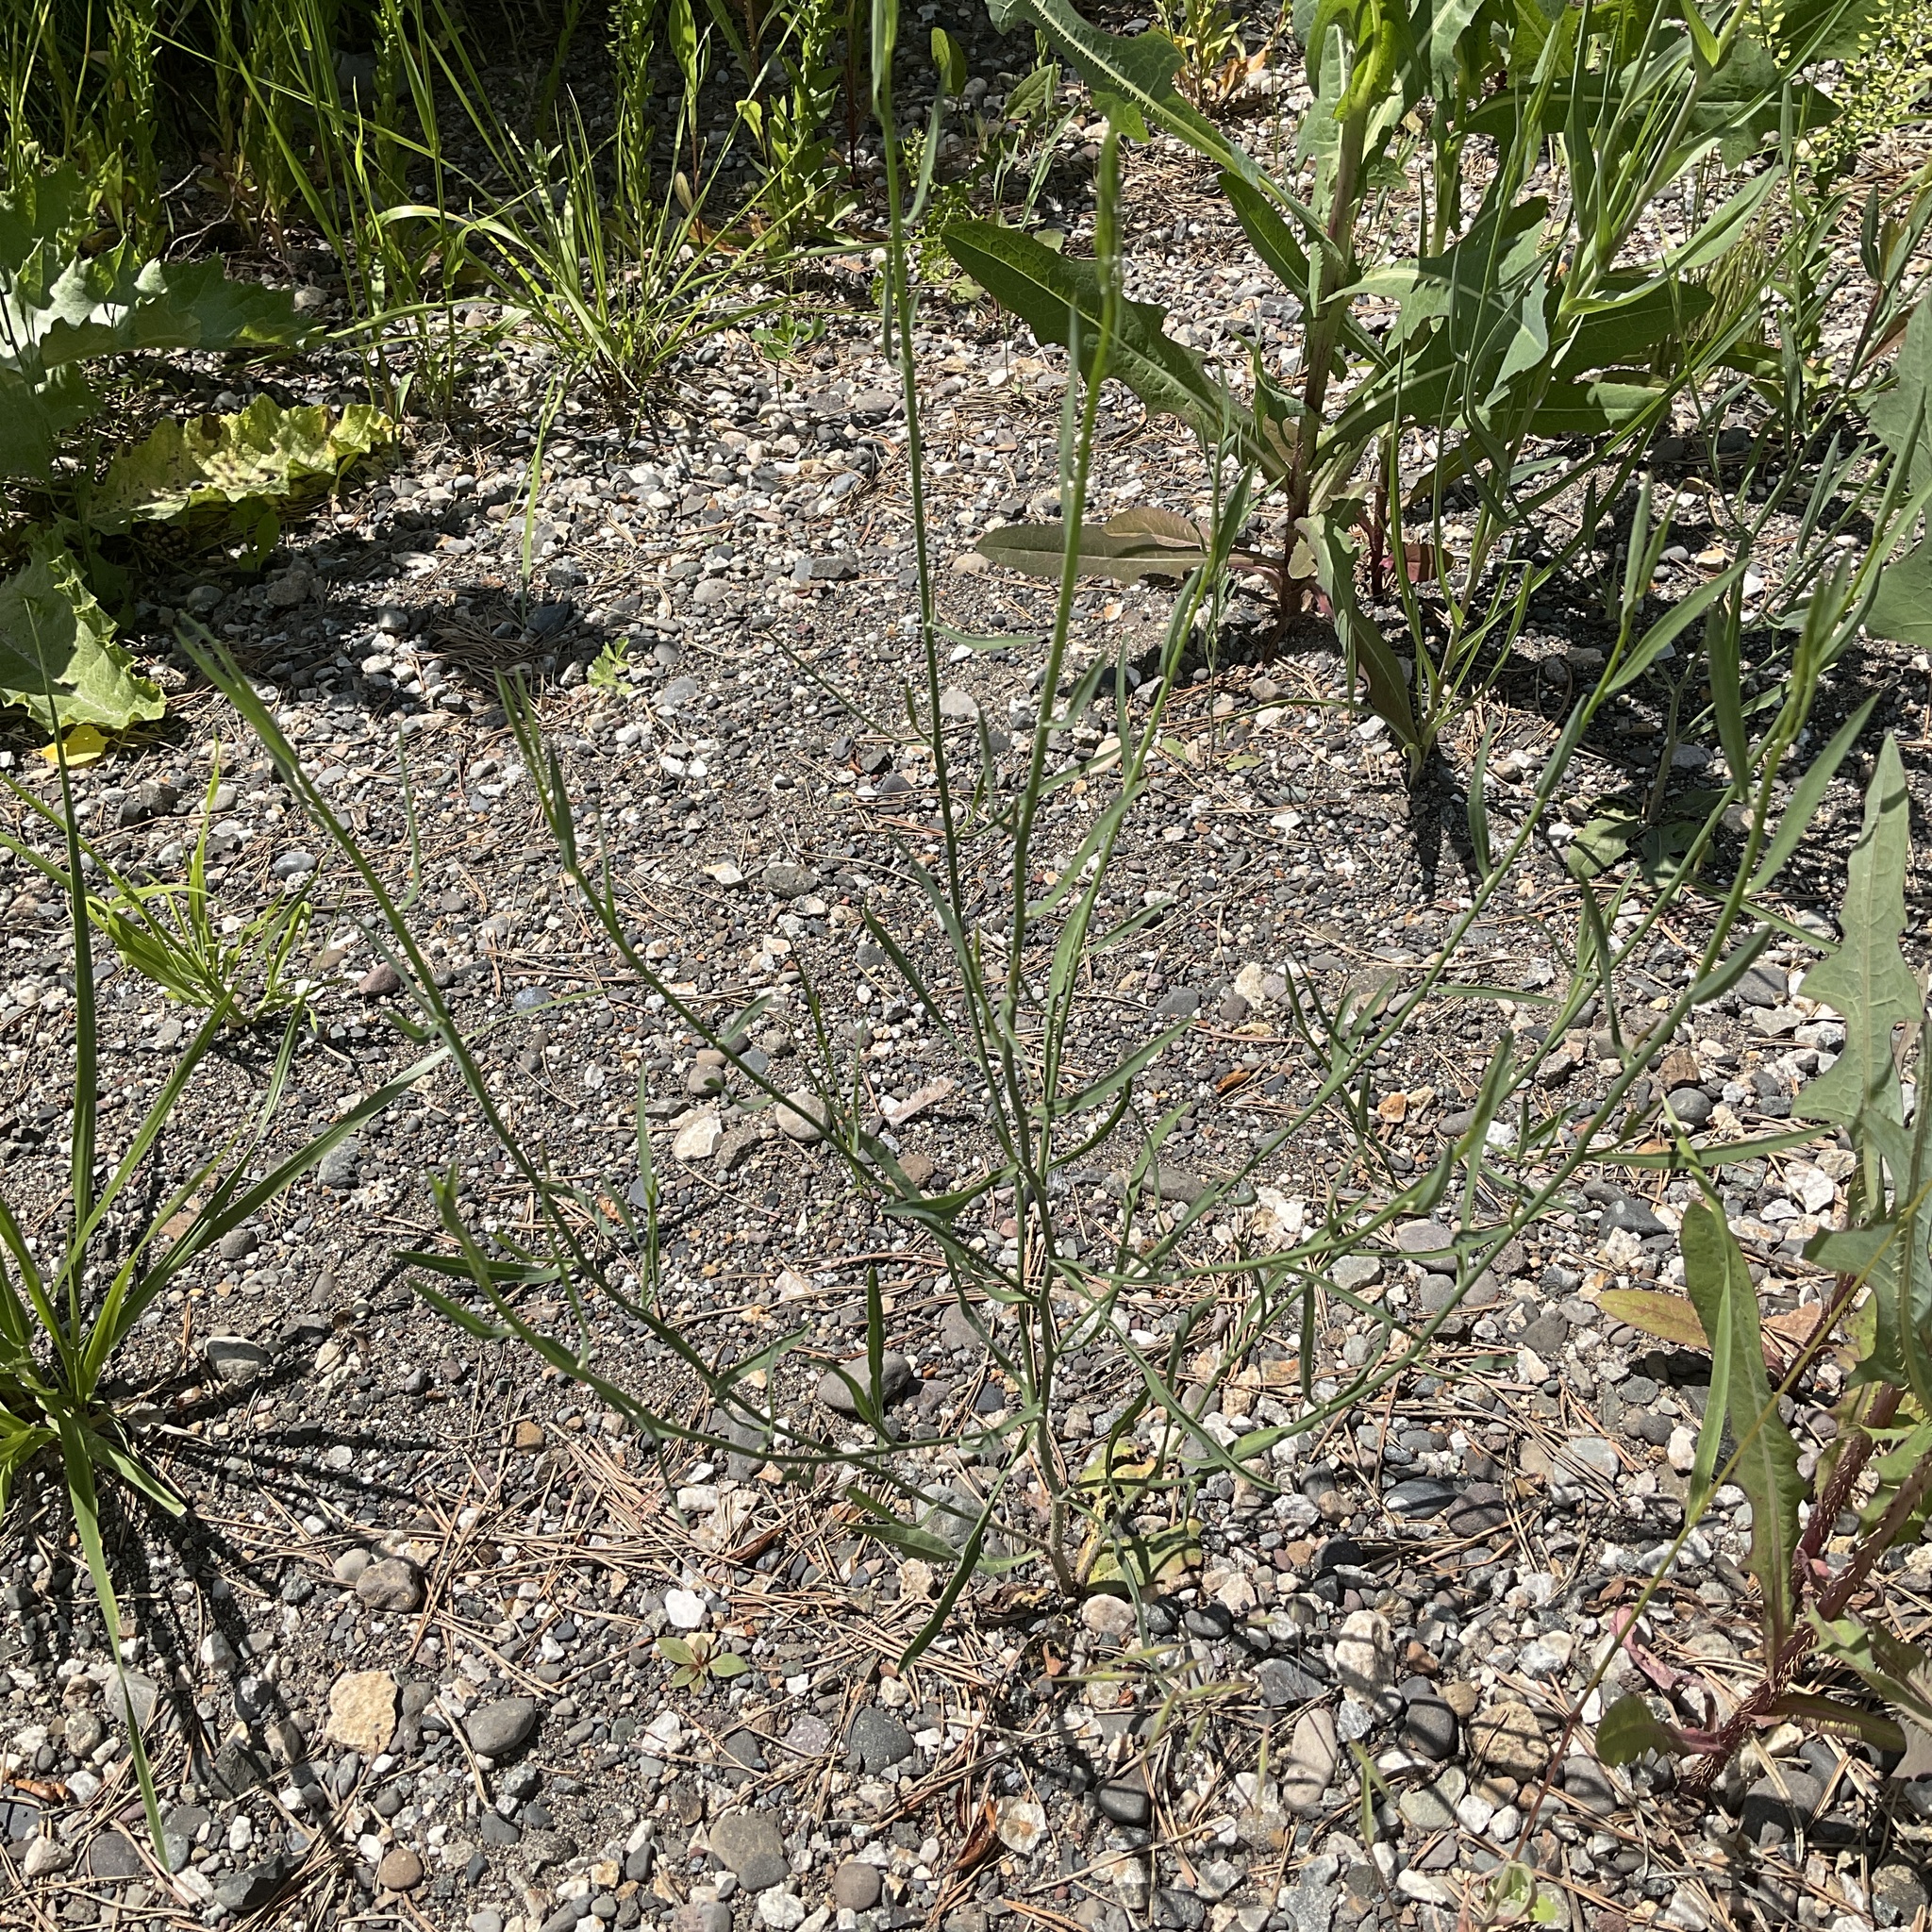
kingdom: Plantae
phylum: Tracheophyta
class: Magnoliopsida
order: Asterales
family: Asteraceae
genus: Chondrilla
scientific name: Chondrilla juncea
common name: Skeleton weed
